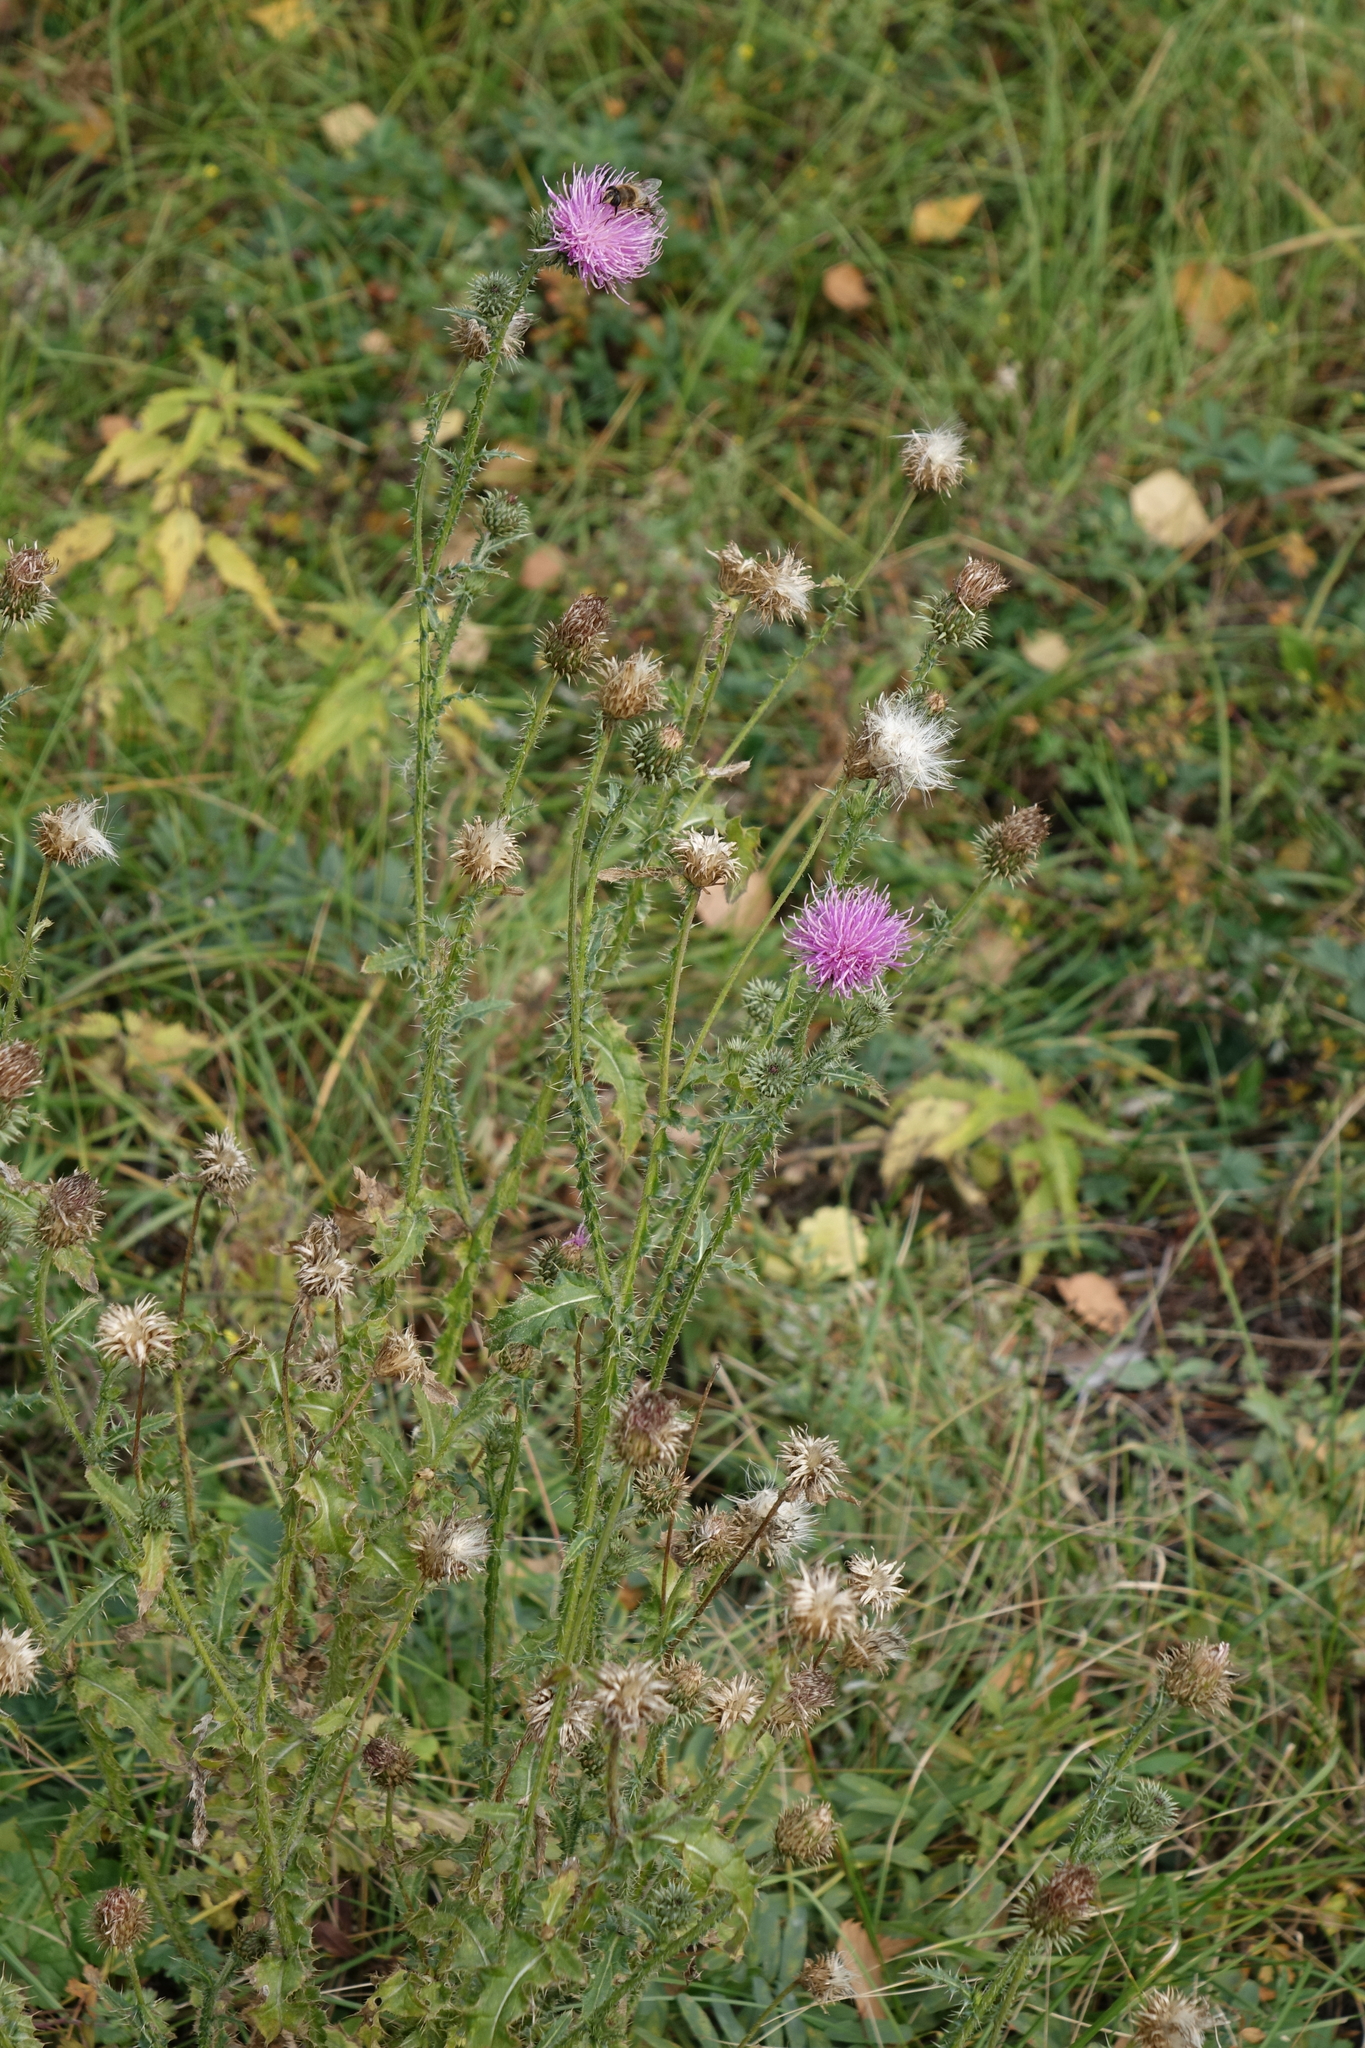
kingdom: Plantae
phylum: Tracheophyta
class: Magnoliopsida
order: Asterales
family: Asteraceae
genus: Carduus
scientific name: Carduus acanthoides
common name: Plumeless thistle
